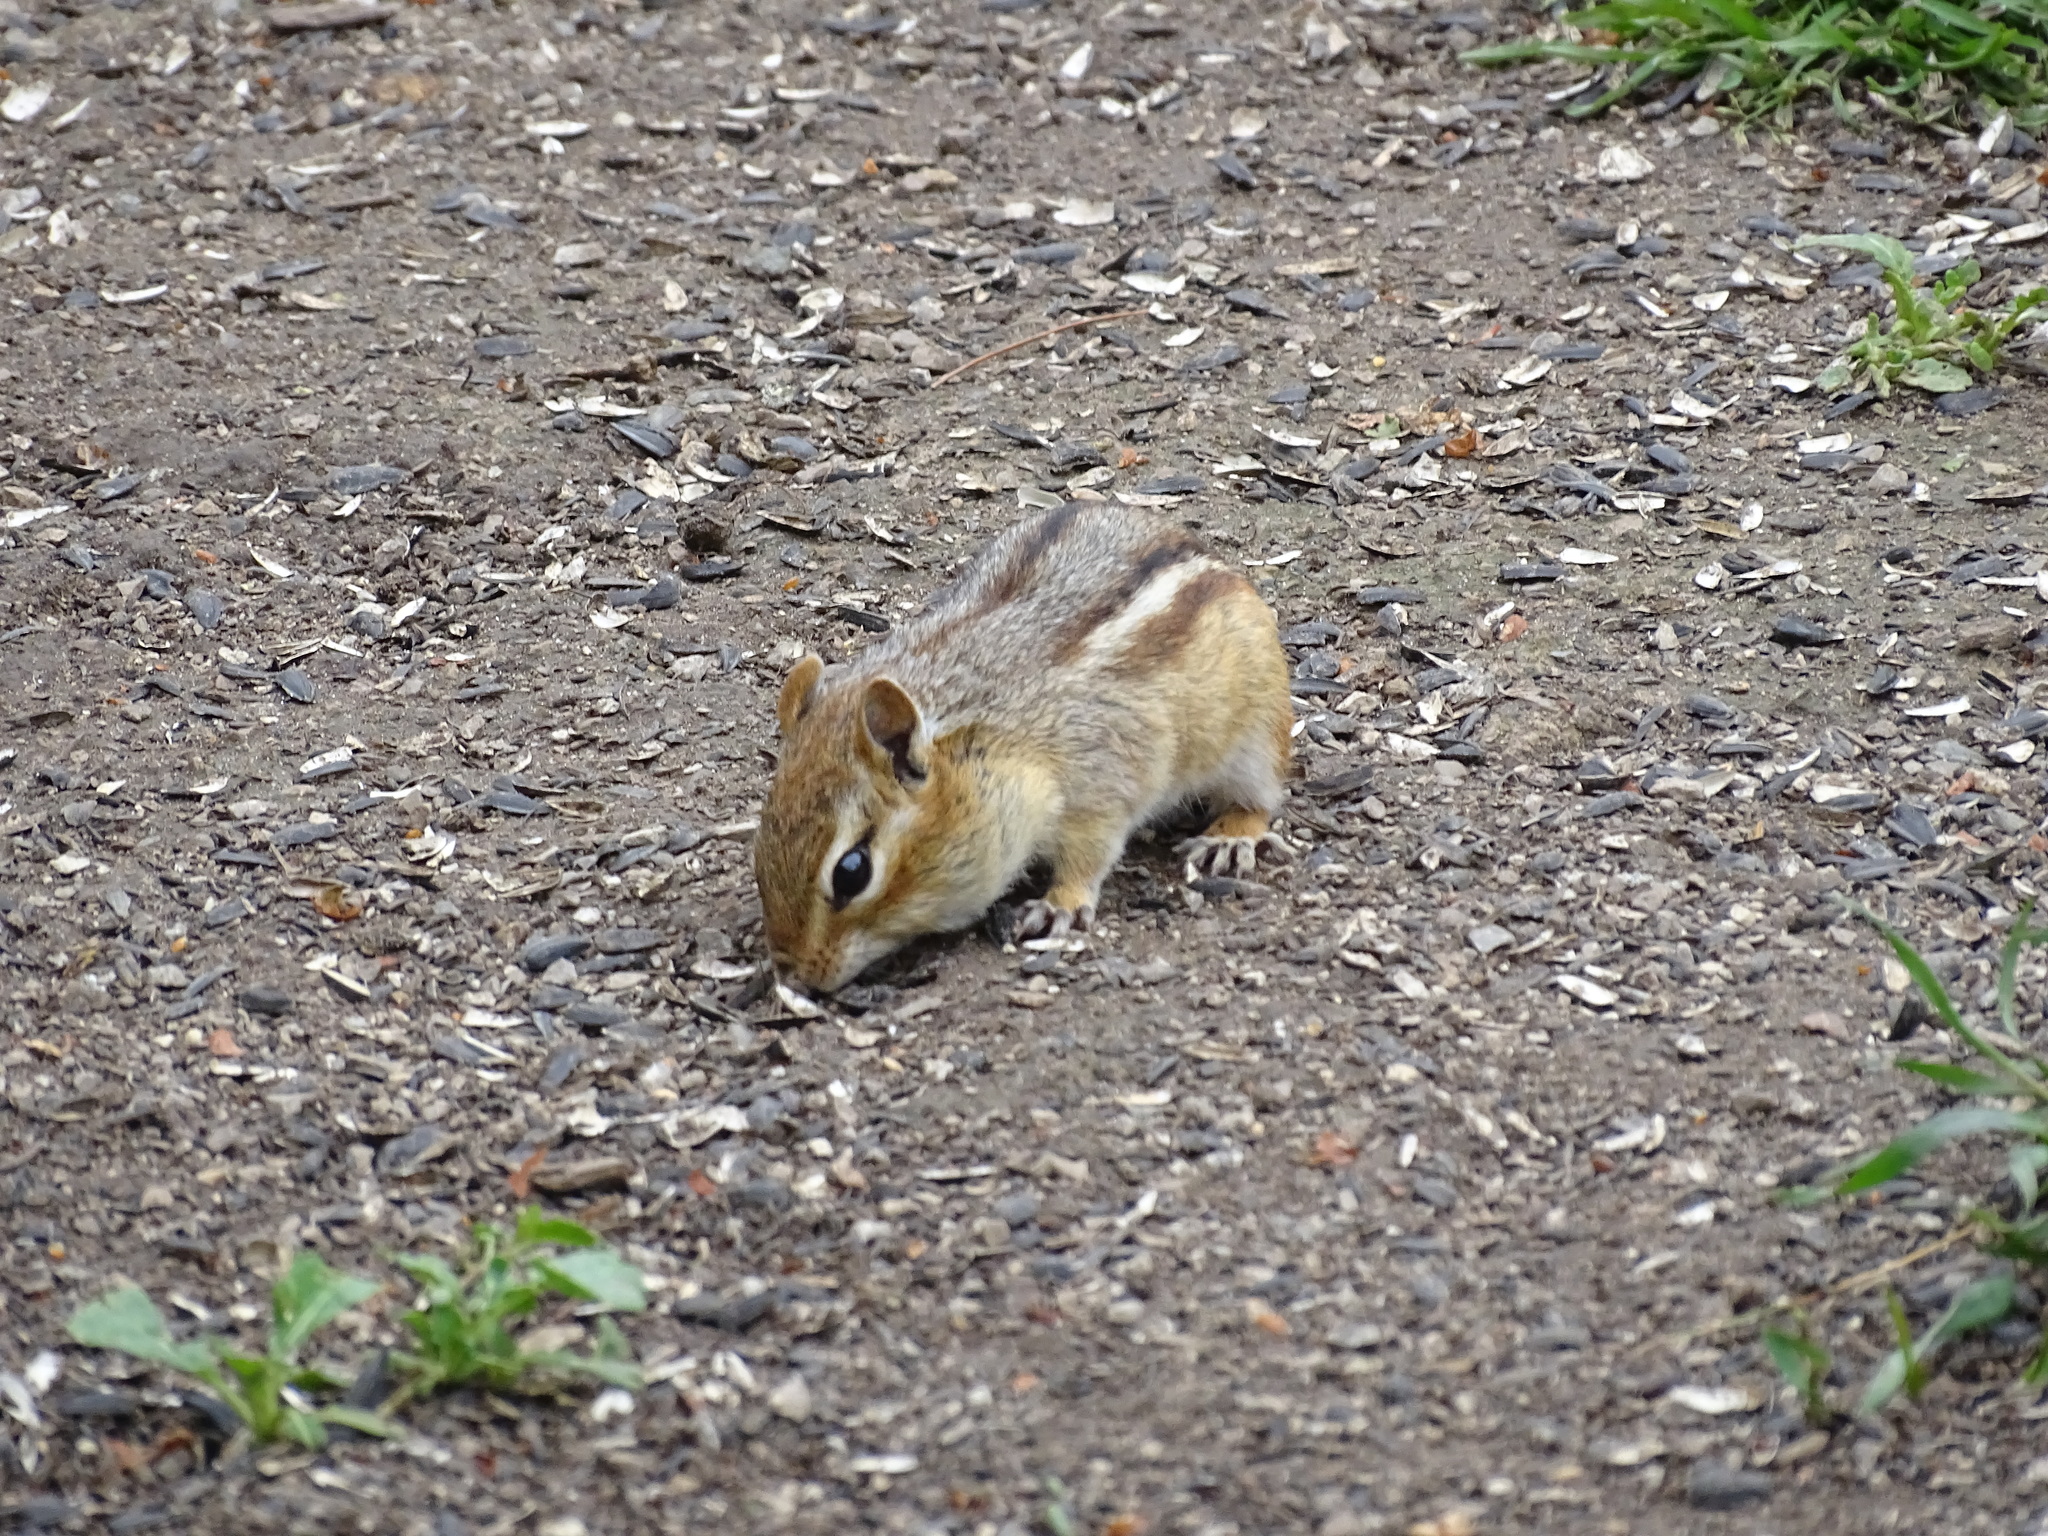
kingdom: Animalia
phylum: Chordata
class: Mammalia
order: Rodentia
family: Sciuridae
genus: Tamias
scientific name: Tamias striatus
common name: Eastern chipmunk
